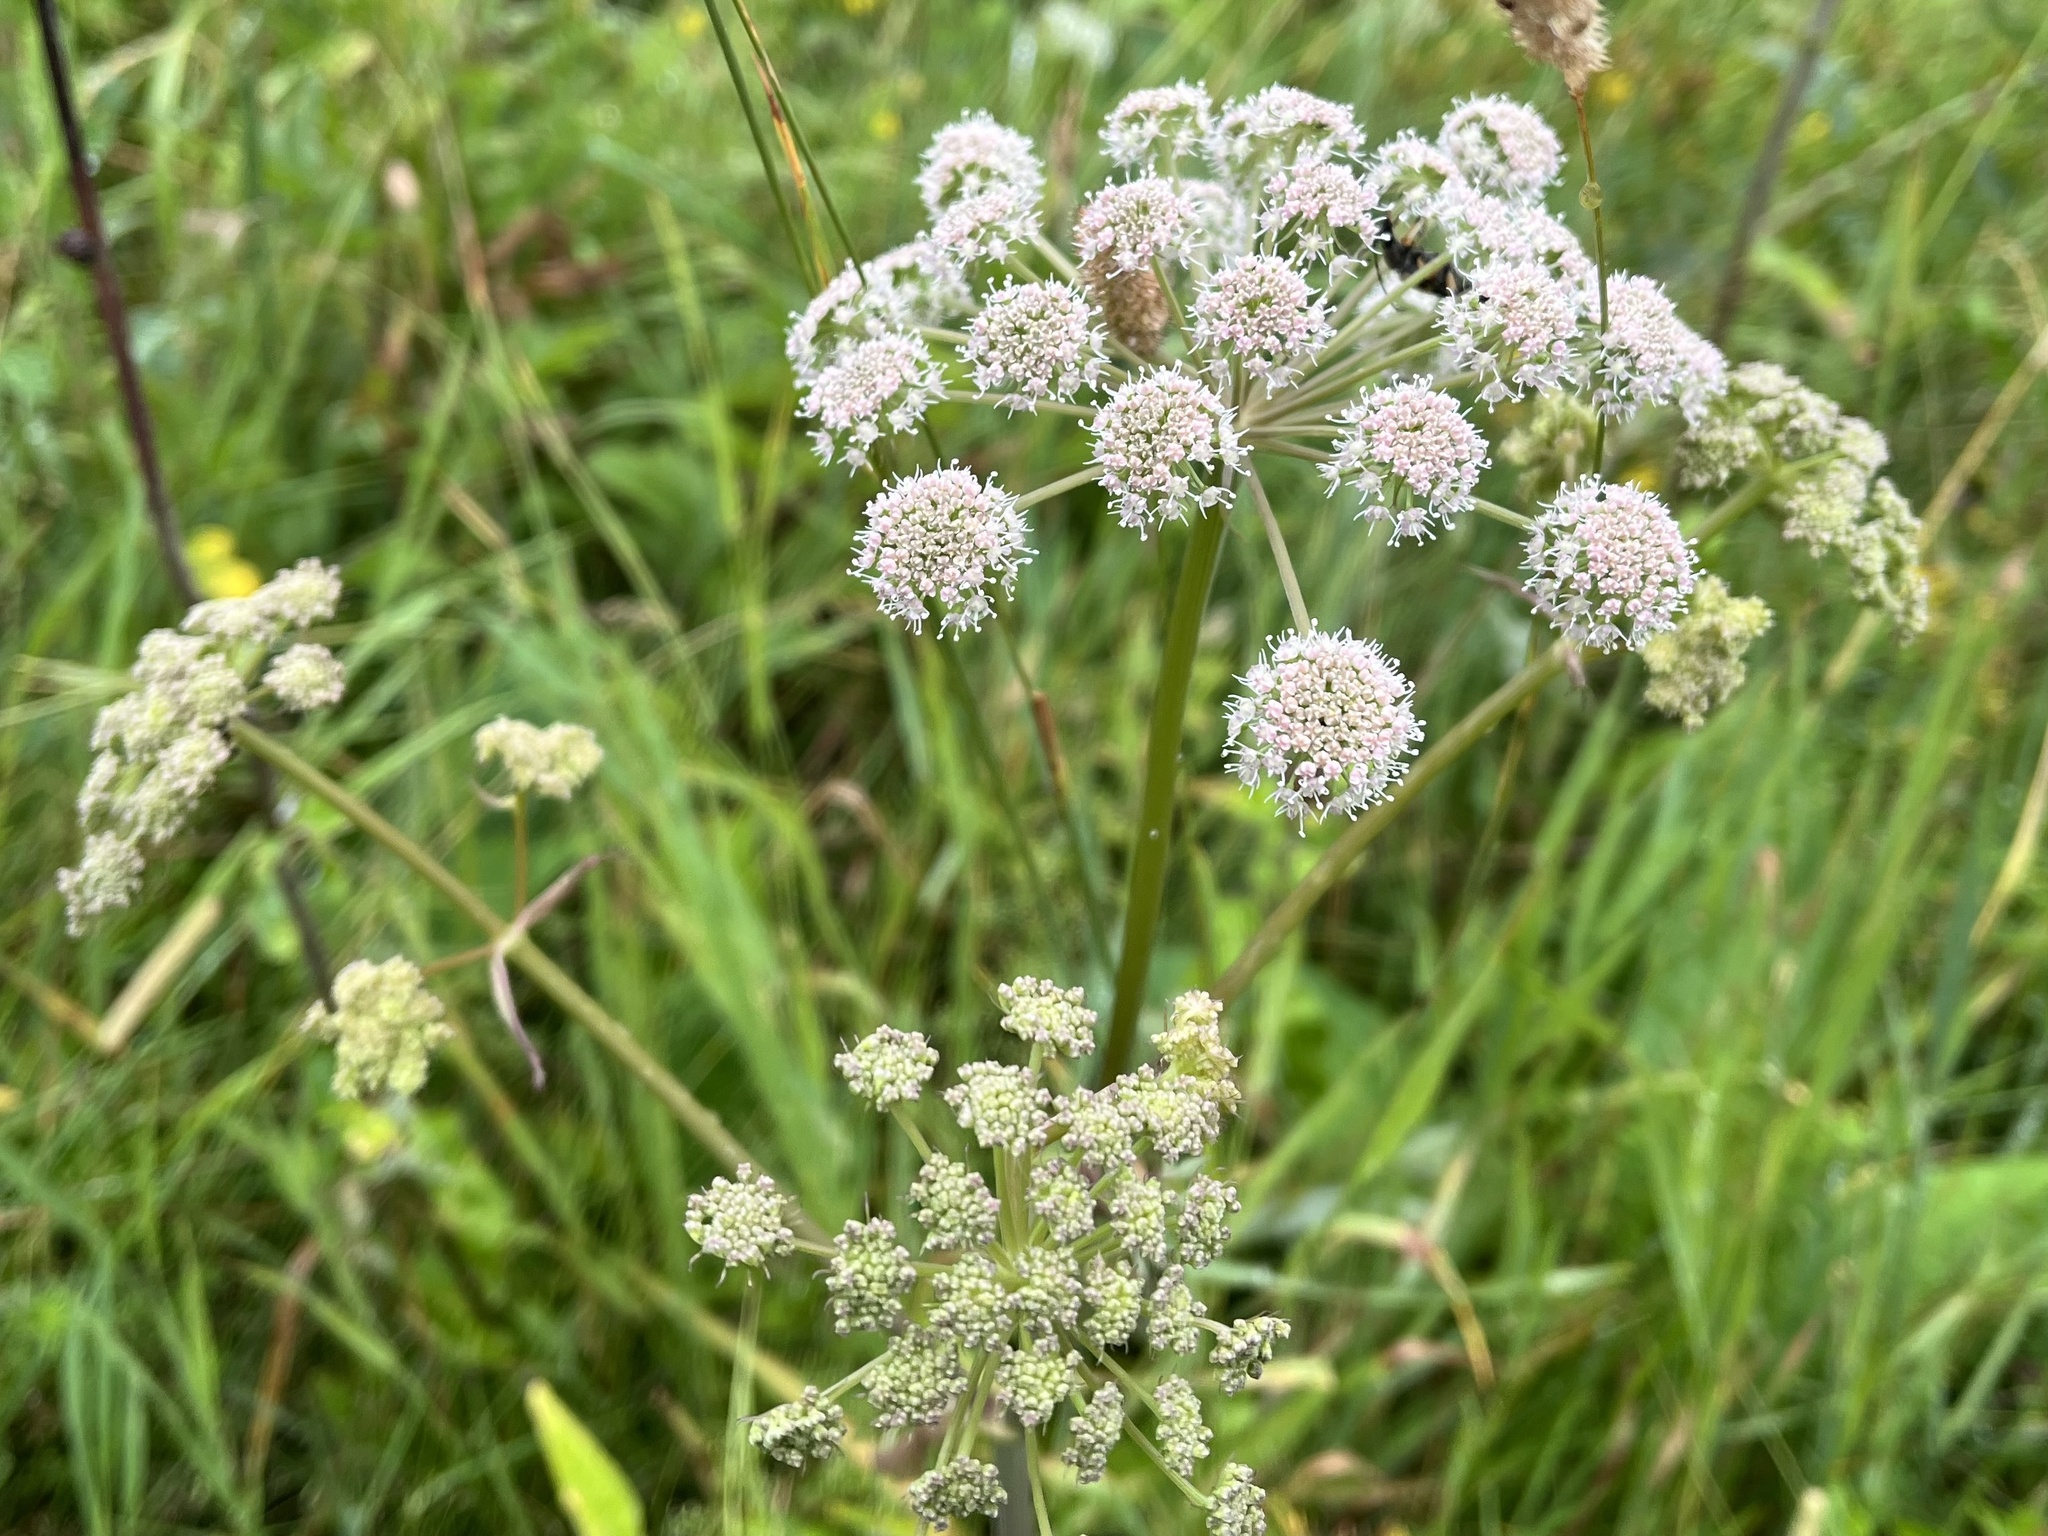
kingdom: Plantae
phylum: Tracheophyta
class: Magnoliopsida
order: Apiales
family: Apiaceae
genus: Angelica
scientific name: Angelica sylvestris
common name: Wild angelica
